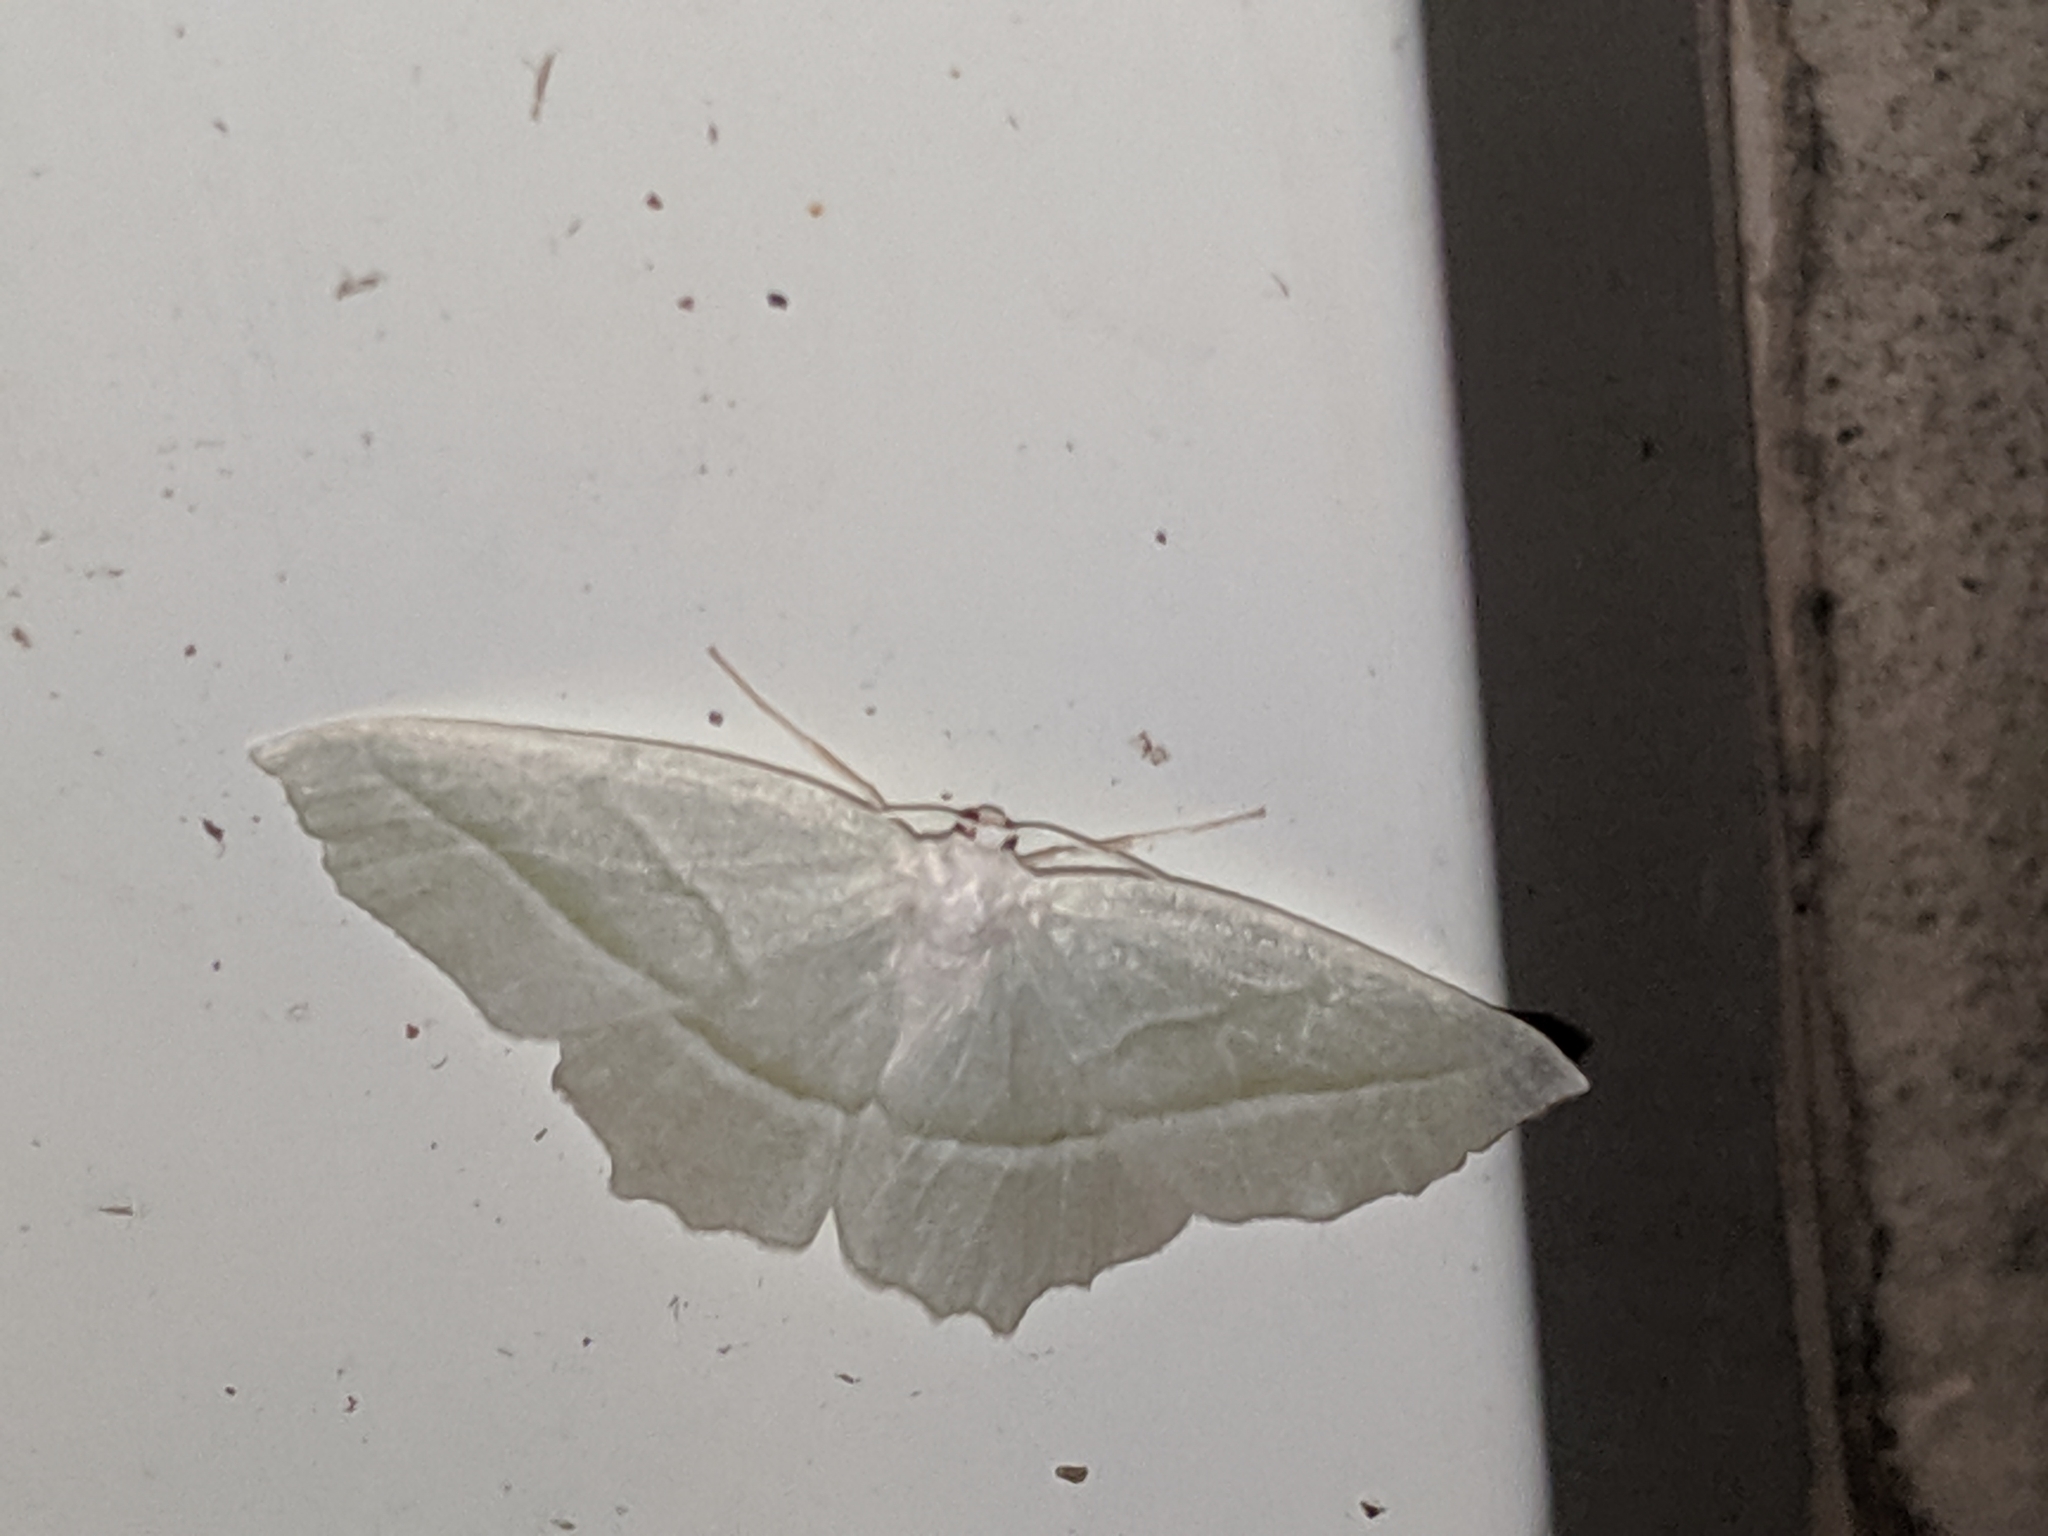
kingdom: Animalia
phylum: Arthropoda
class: Insecta
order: Lepidoptera
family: Geometridae
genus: Campaea
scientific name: Campaea perlata
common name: Fringed looper
